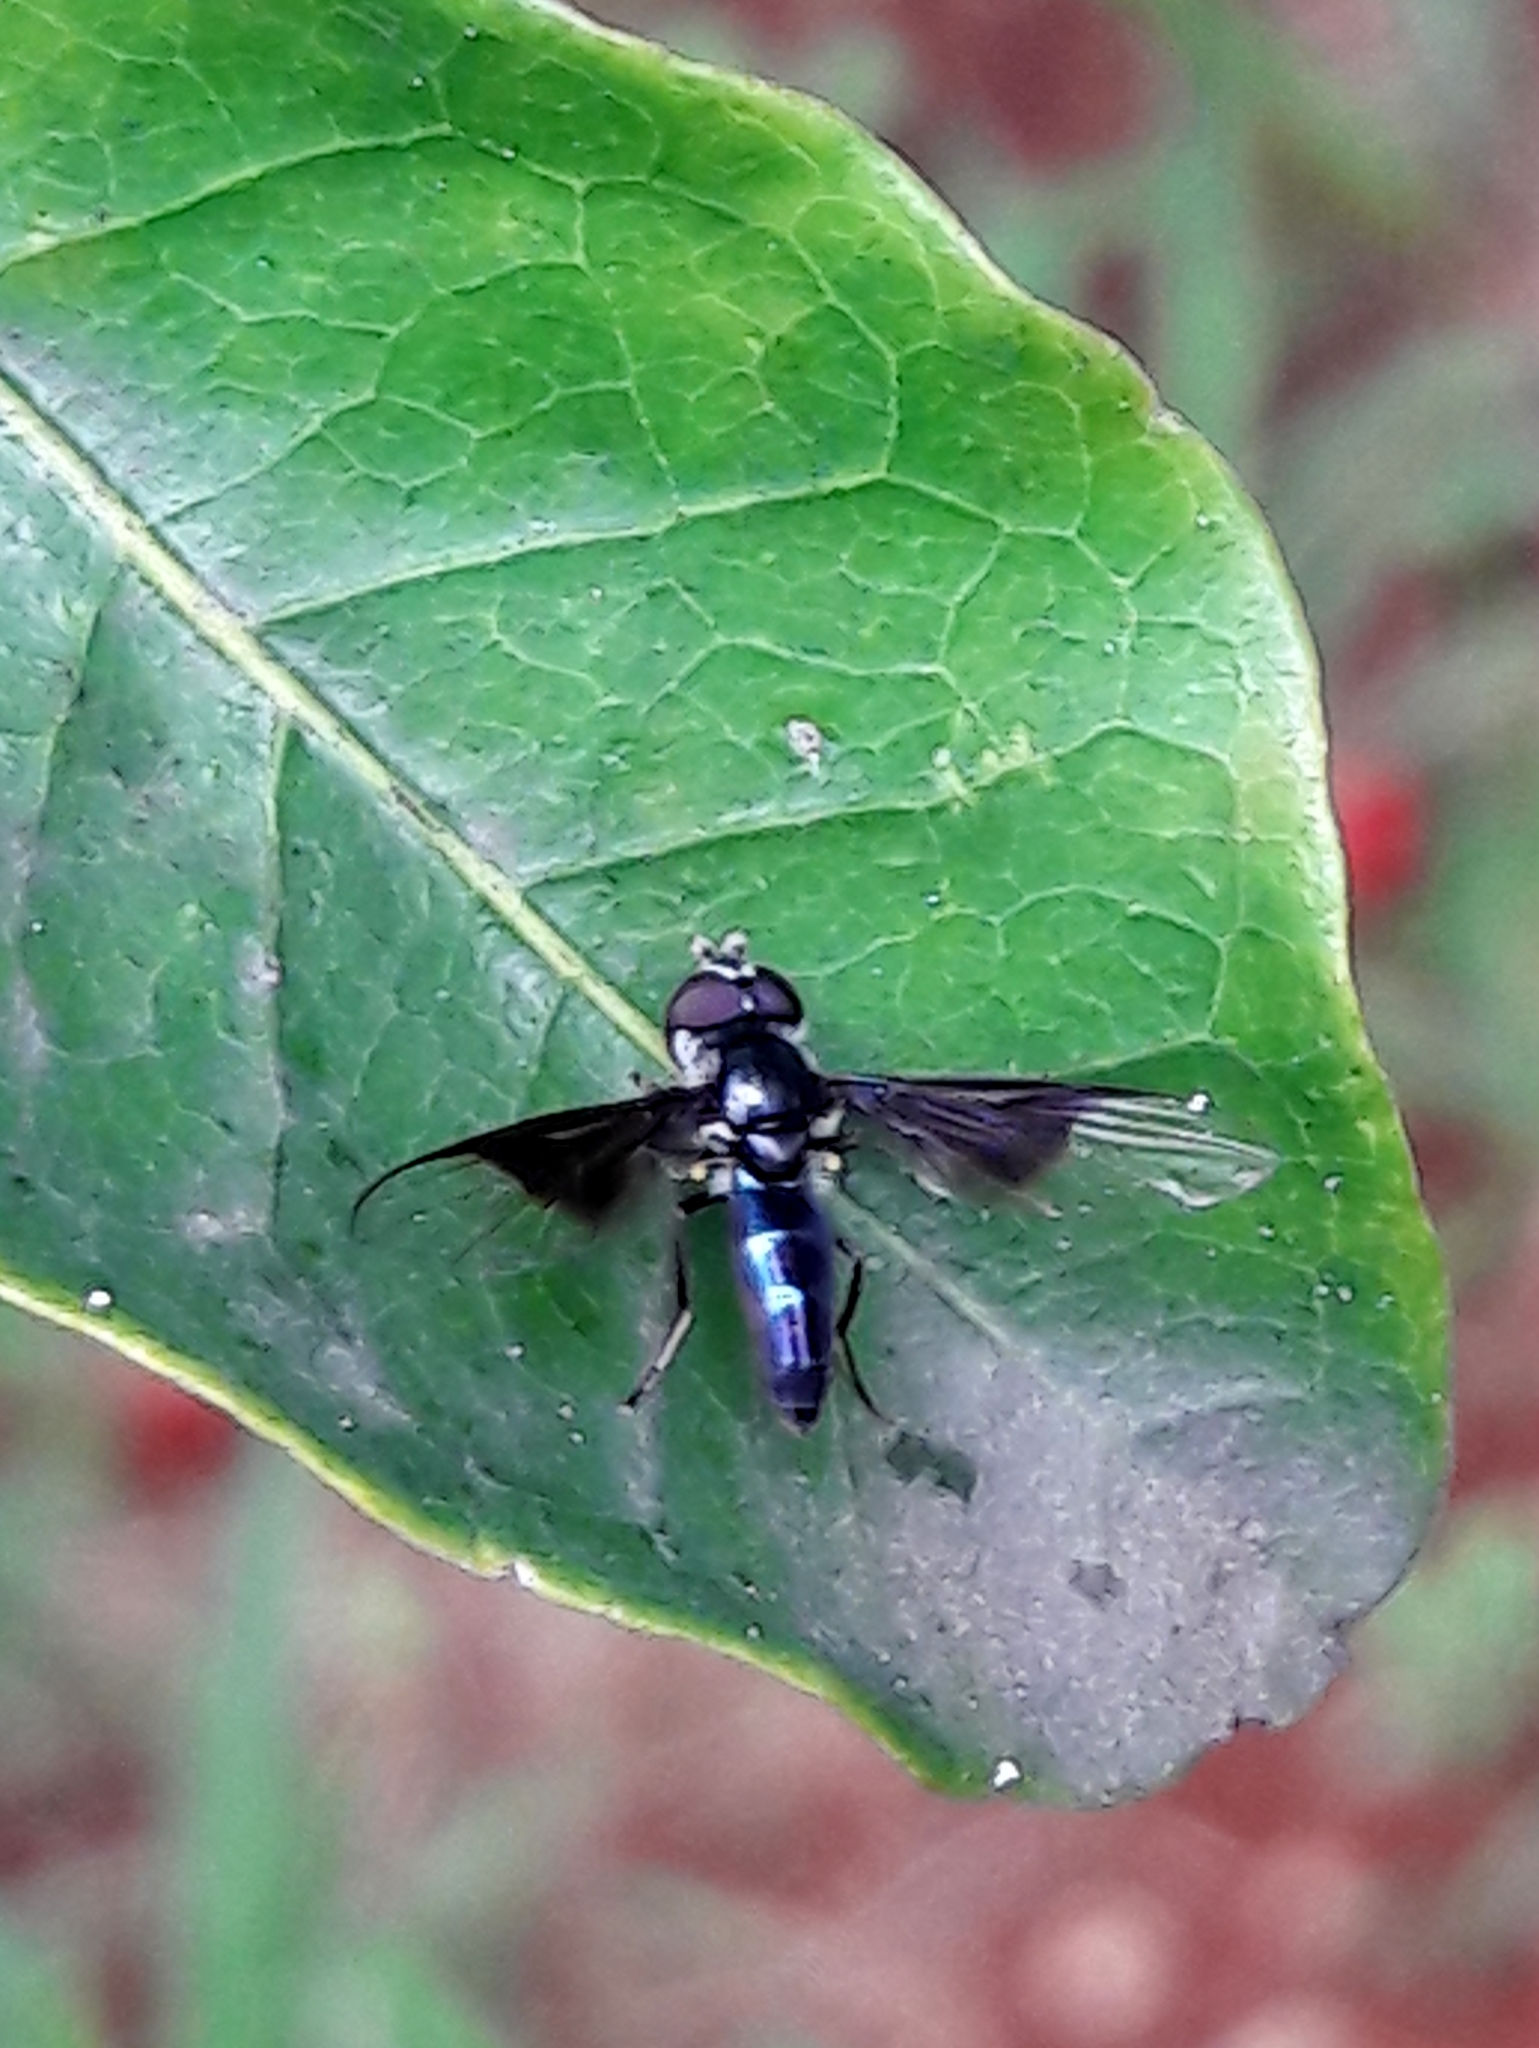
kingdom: Animalia
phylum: Arthropoda
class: Insecta
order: Diptera
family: Syrphidae
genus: Ocyptamus
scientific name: Ocyptamus dimidiatus
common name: Syrphid fly
